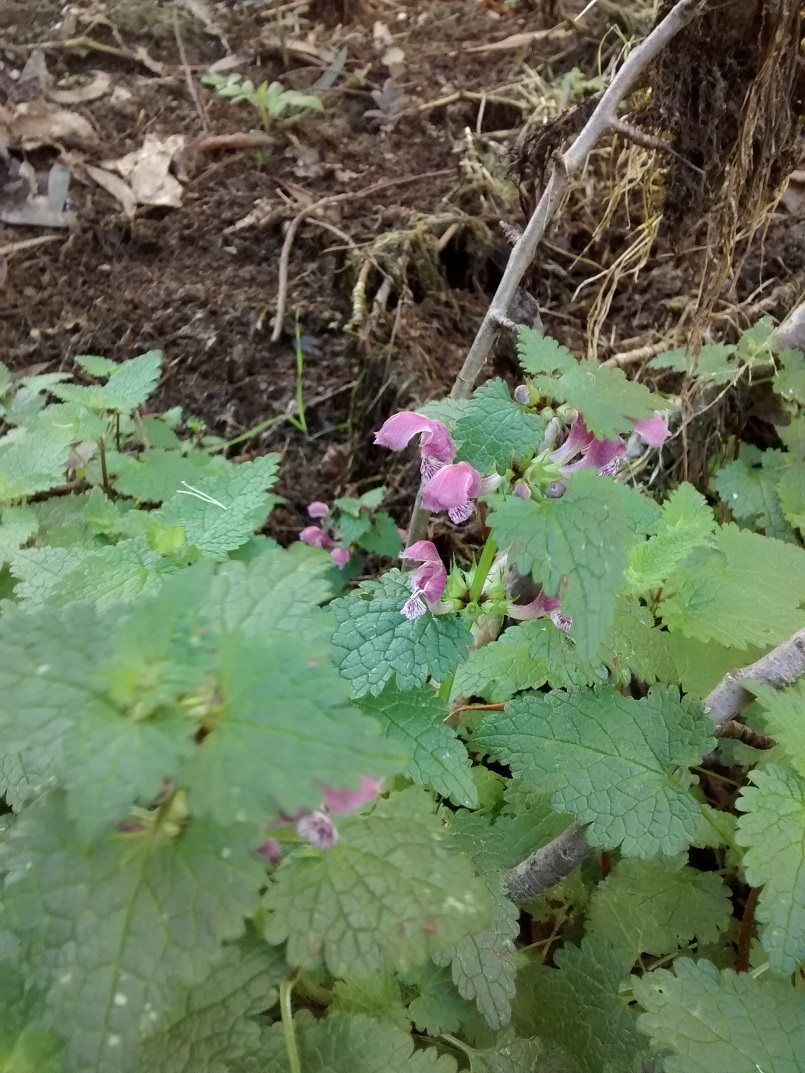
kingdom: Plantae
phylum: Tracheophyta
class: Magnoliopsida
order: Lamiales
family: Lamiaceae
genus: Lamium
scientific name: Lamium maculatum
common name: Spotted dead-nettle
